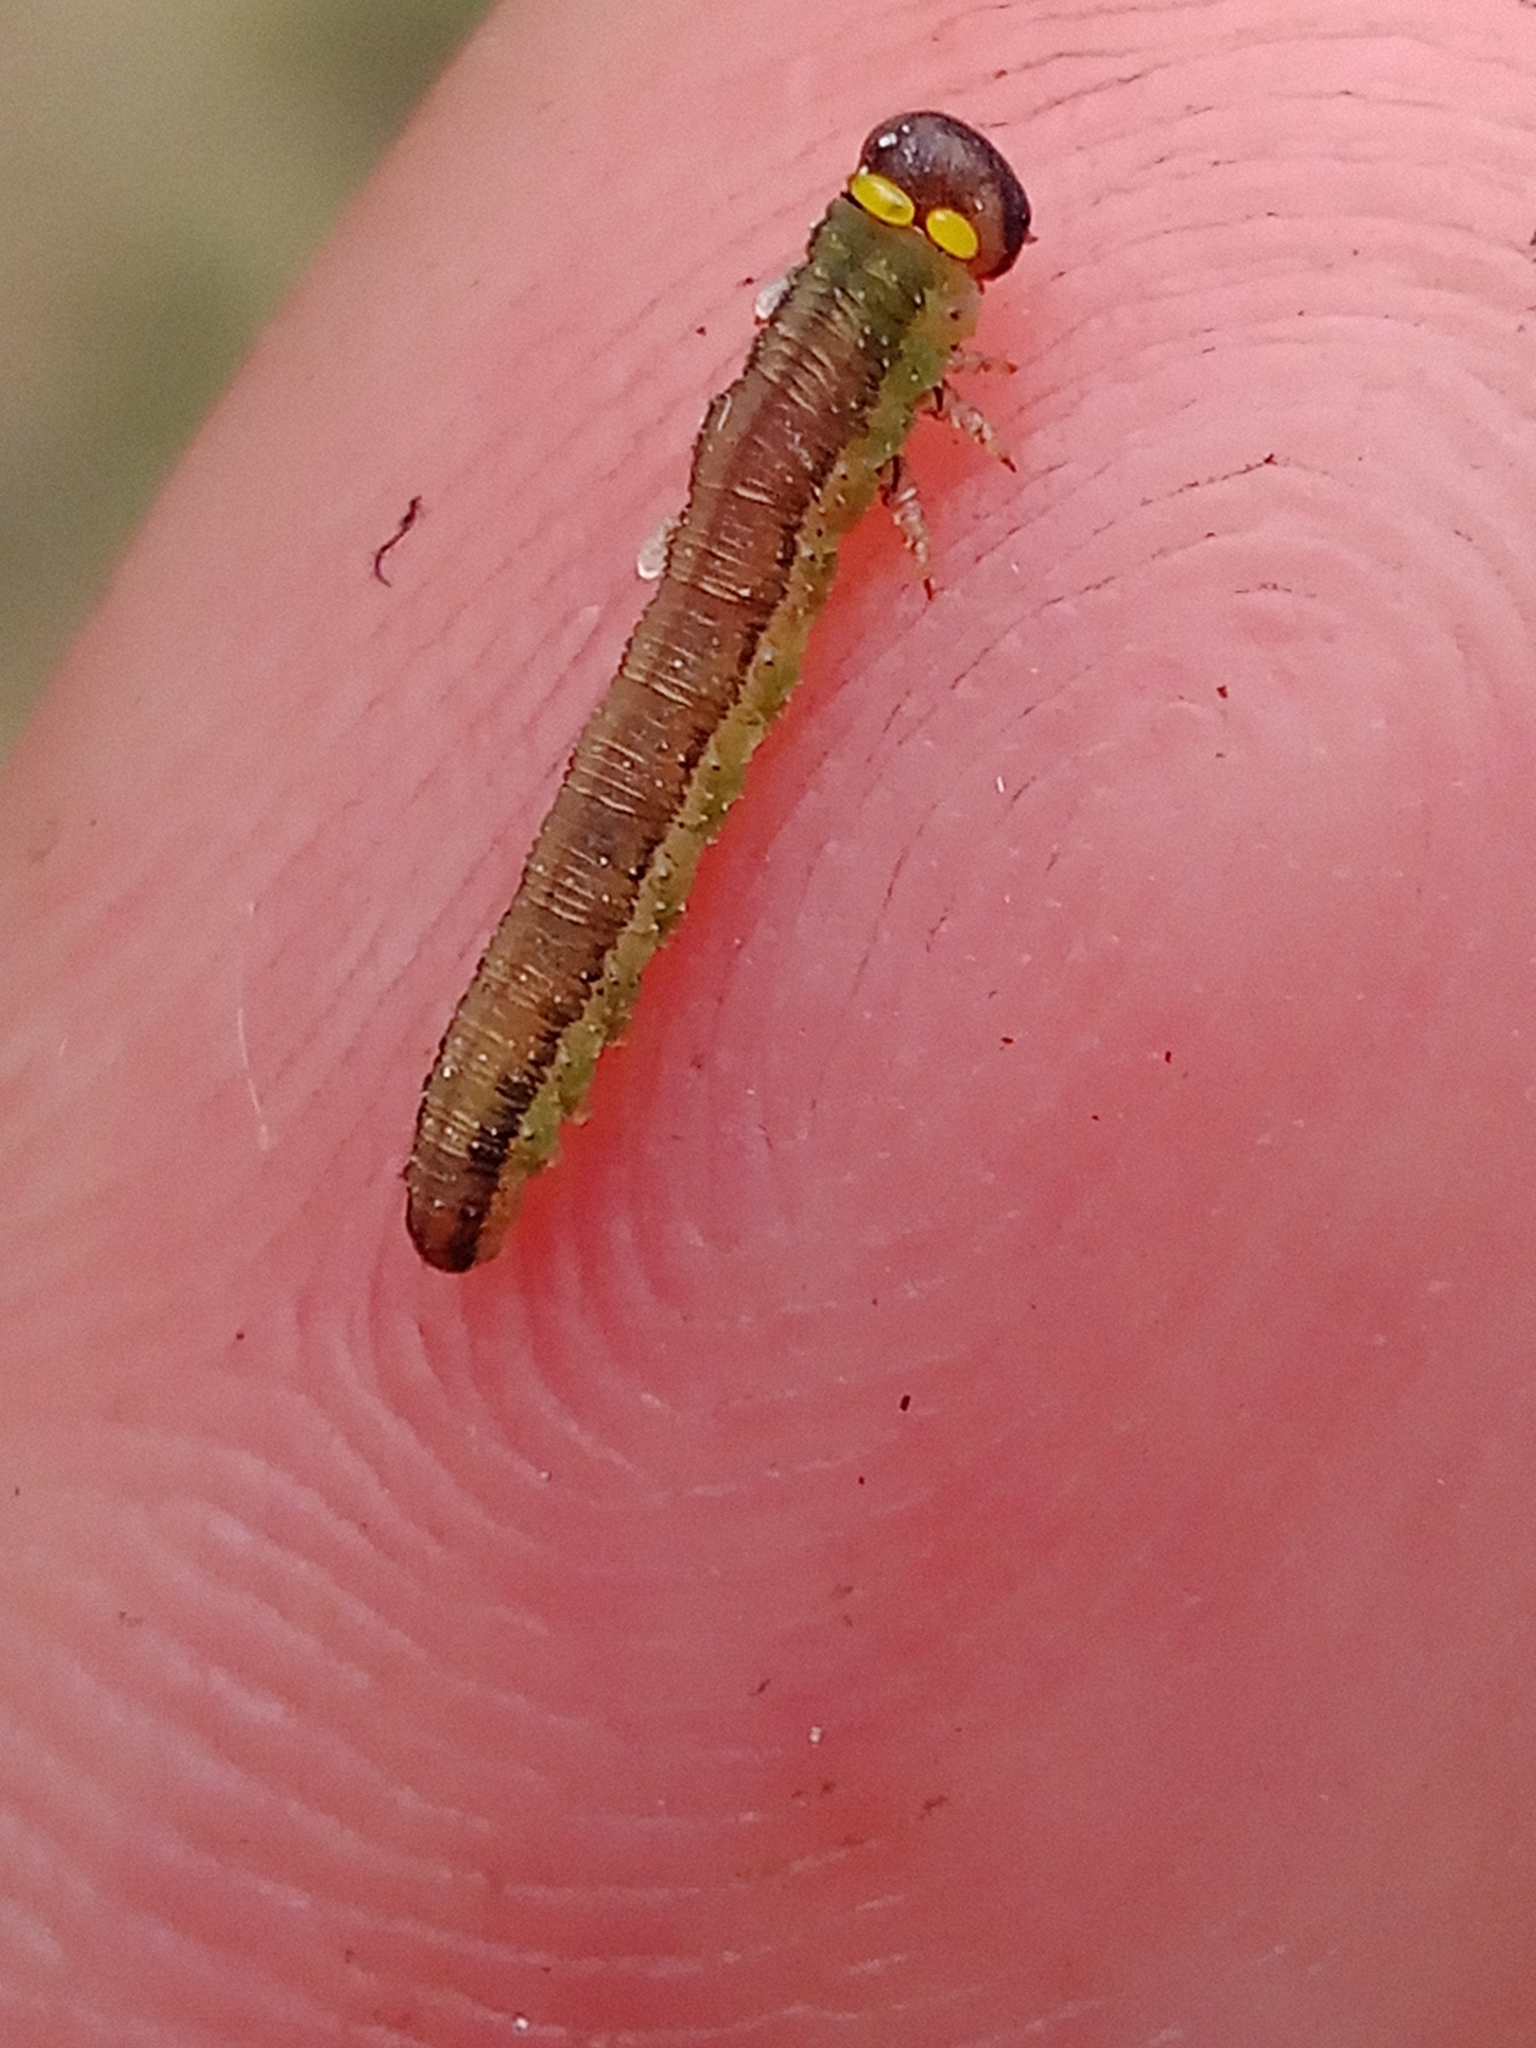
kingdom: Animalia
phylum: Arthropoda
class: Insecta
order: Hymenoptera
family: Tenthredinidae
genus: Dolerus
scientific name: Dolerus aericeps
